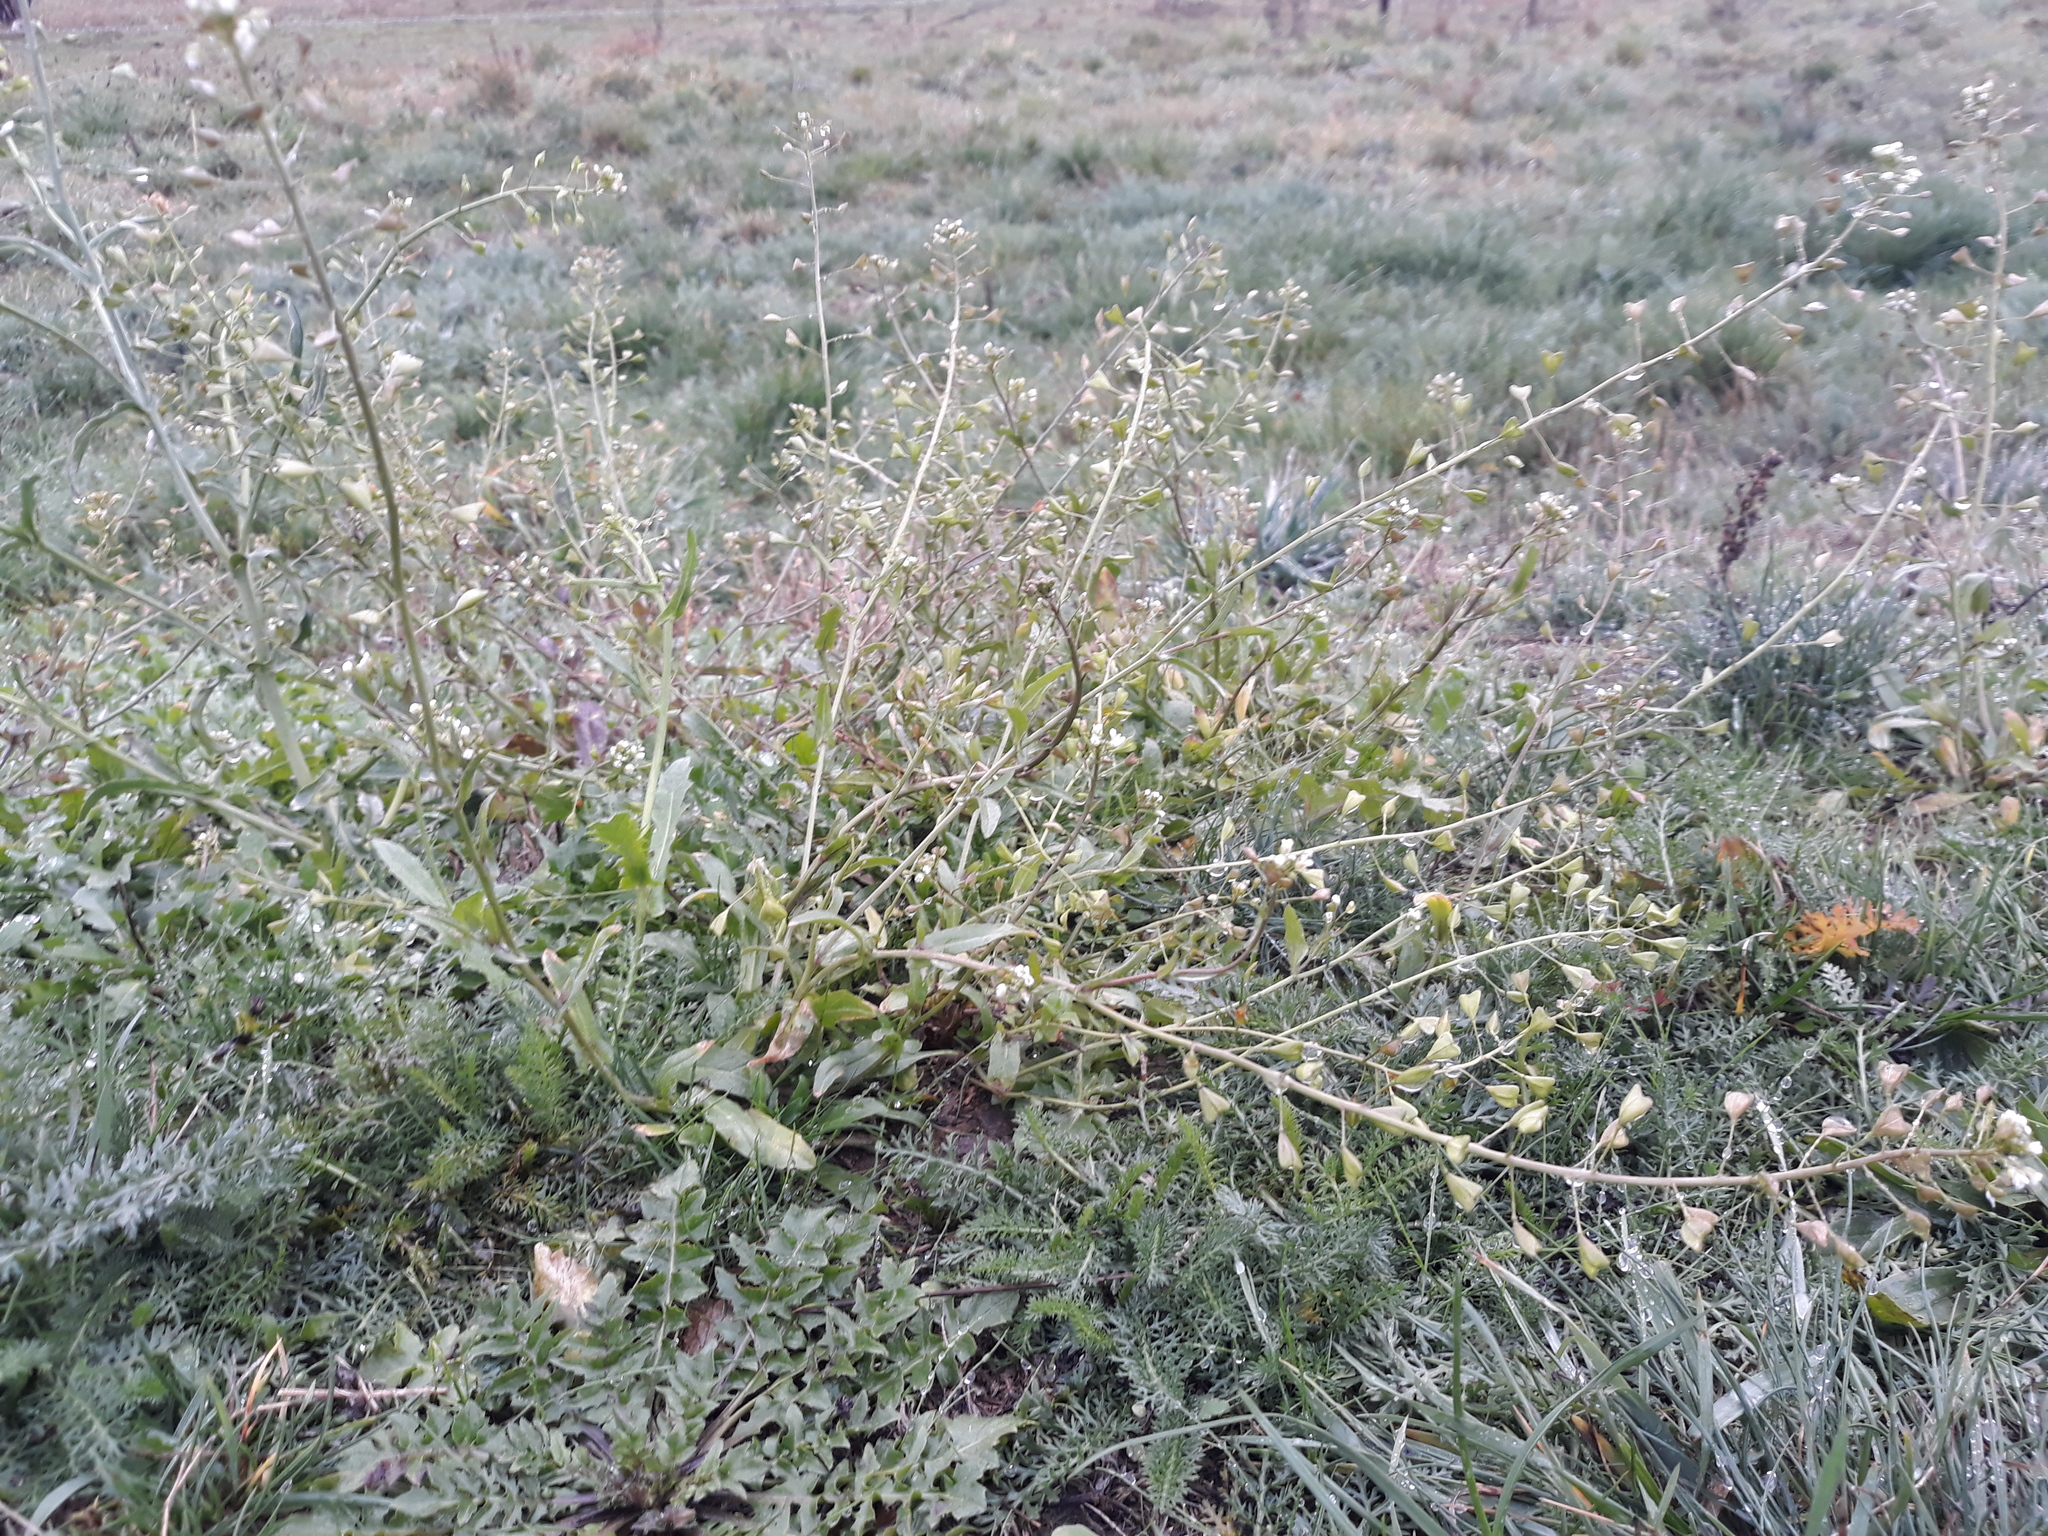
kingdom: Plantae
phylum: Tracheophyta
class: Magnoliopsida
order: Brassicales
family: Brassicaceae
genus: Capsella
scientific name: Capsella bursa-pastoris
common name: Shepherd's purse
